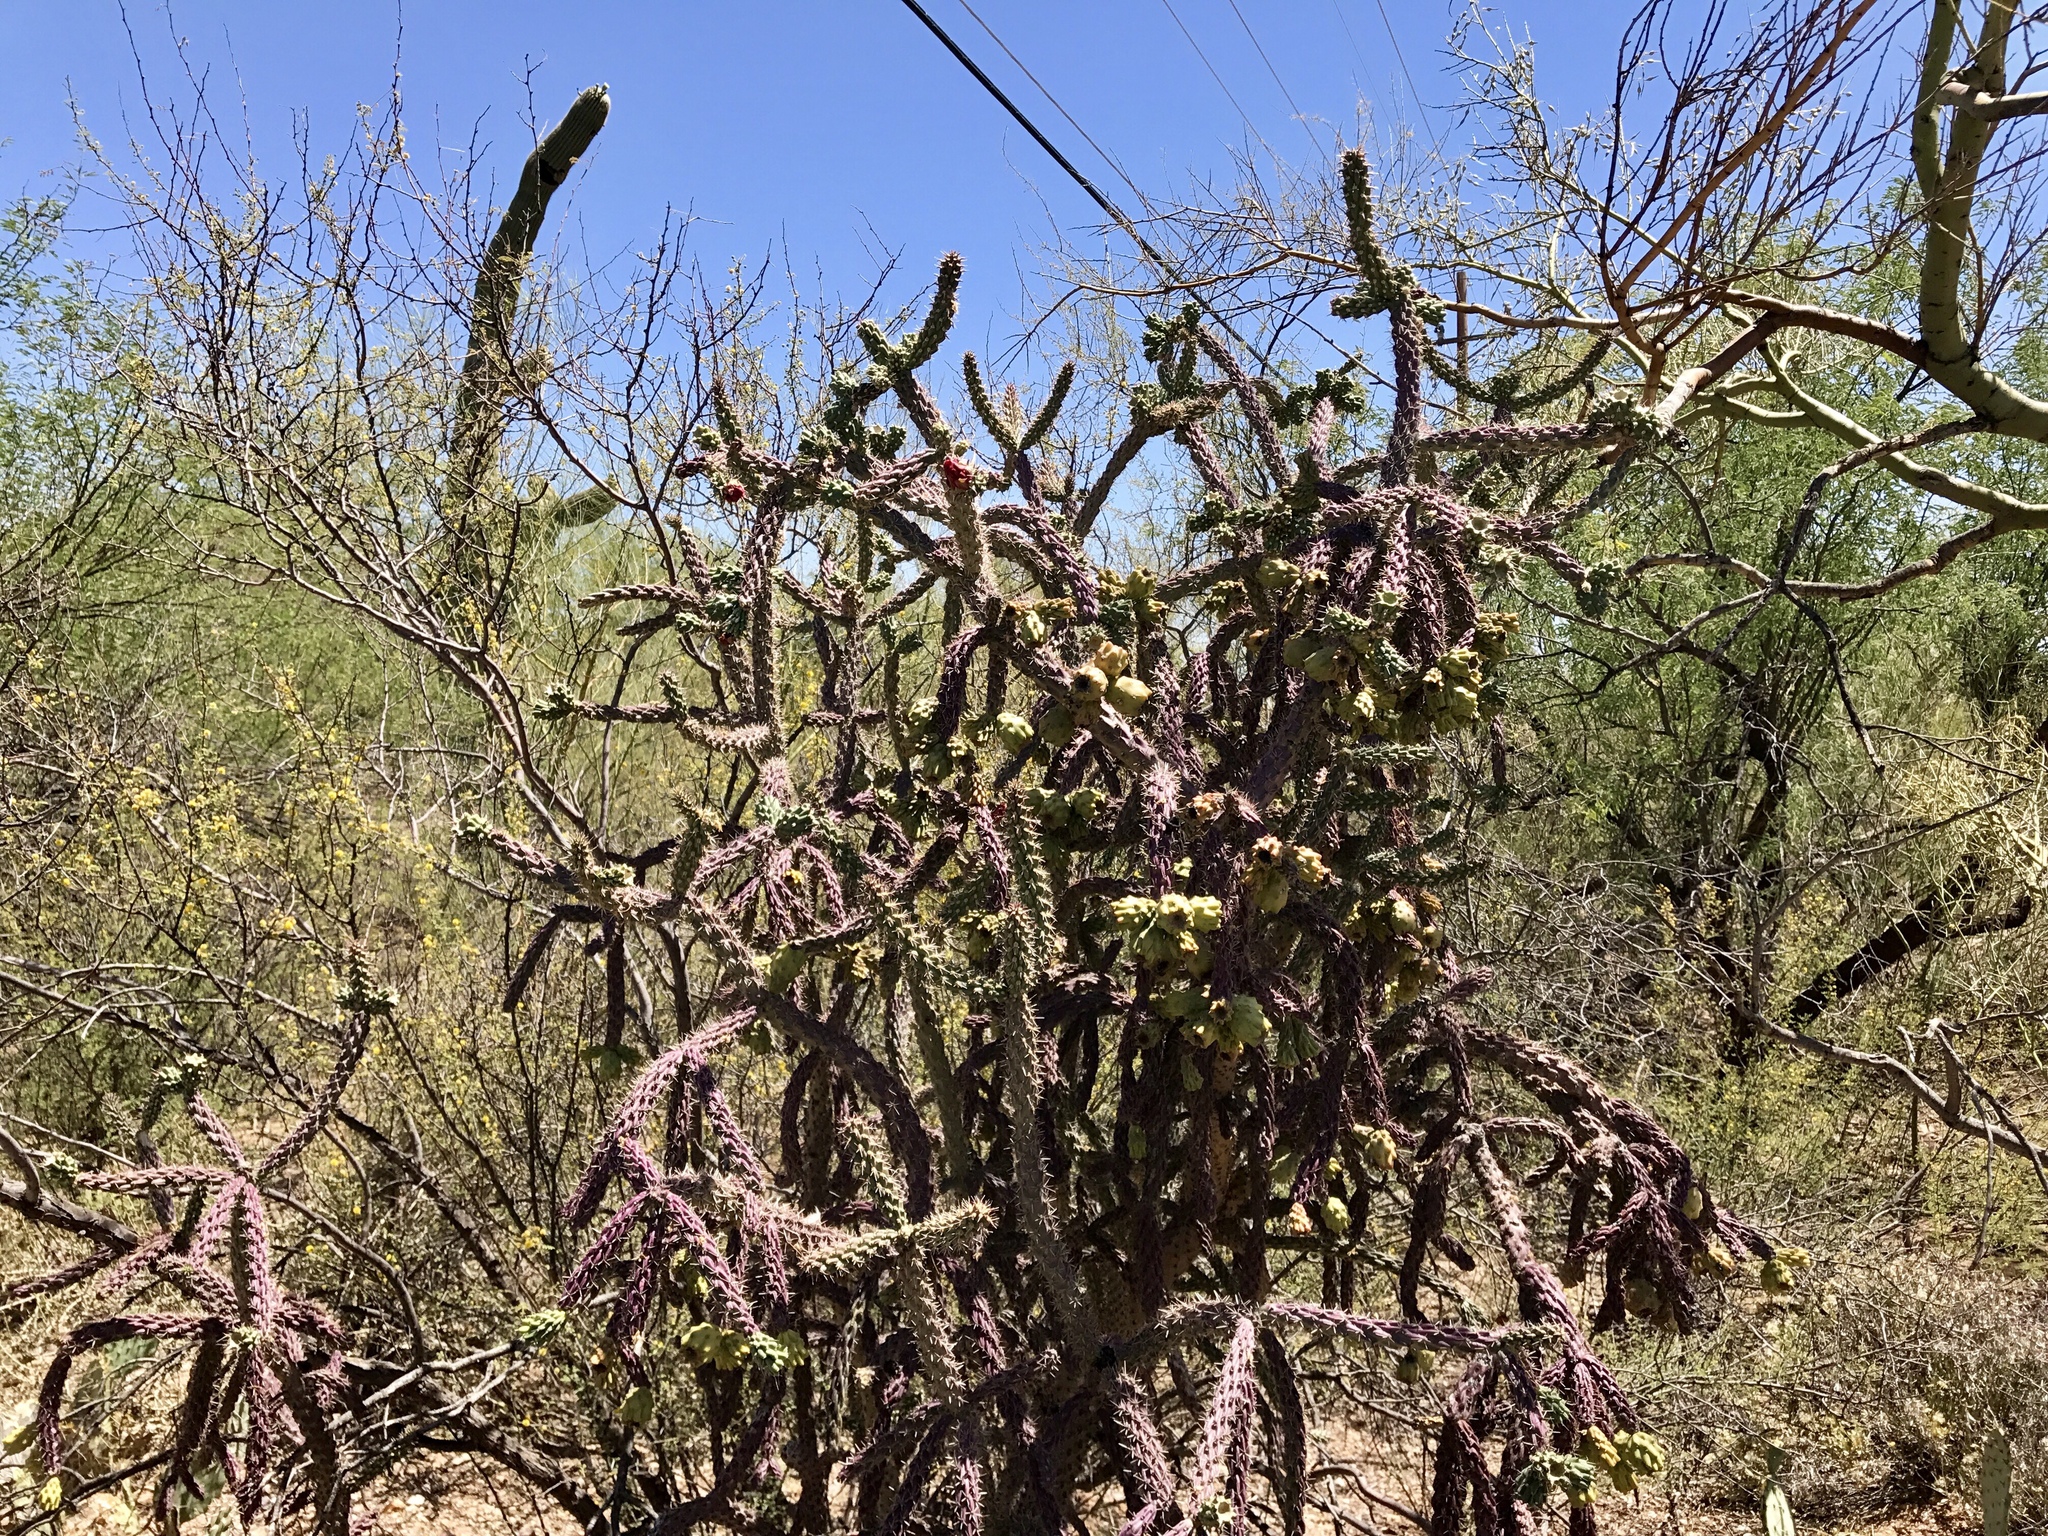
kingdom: Plantae
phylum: Tracheophyta
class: Magnoliopsida
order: Caryophyllales
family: Cactaceae
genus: Cylindropuntia
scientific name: Cylindropuntia thurberi
